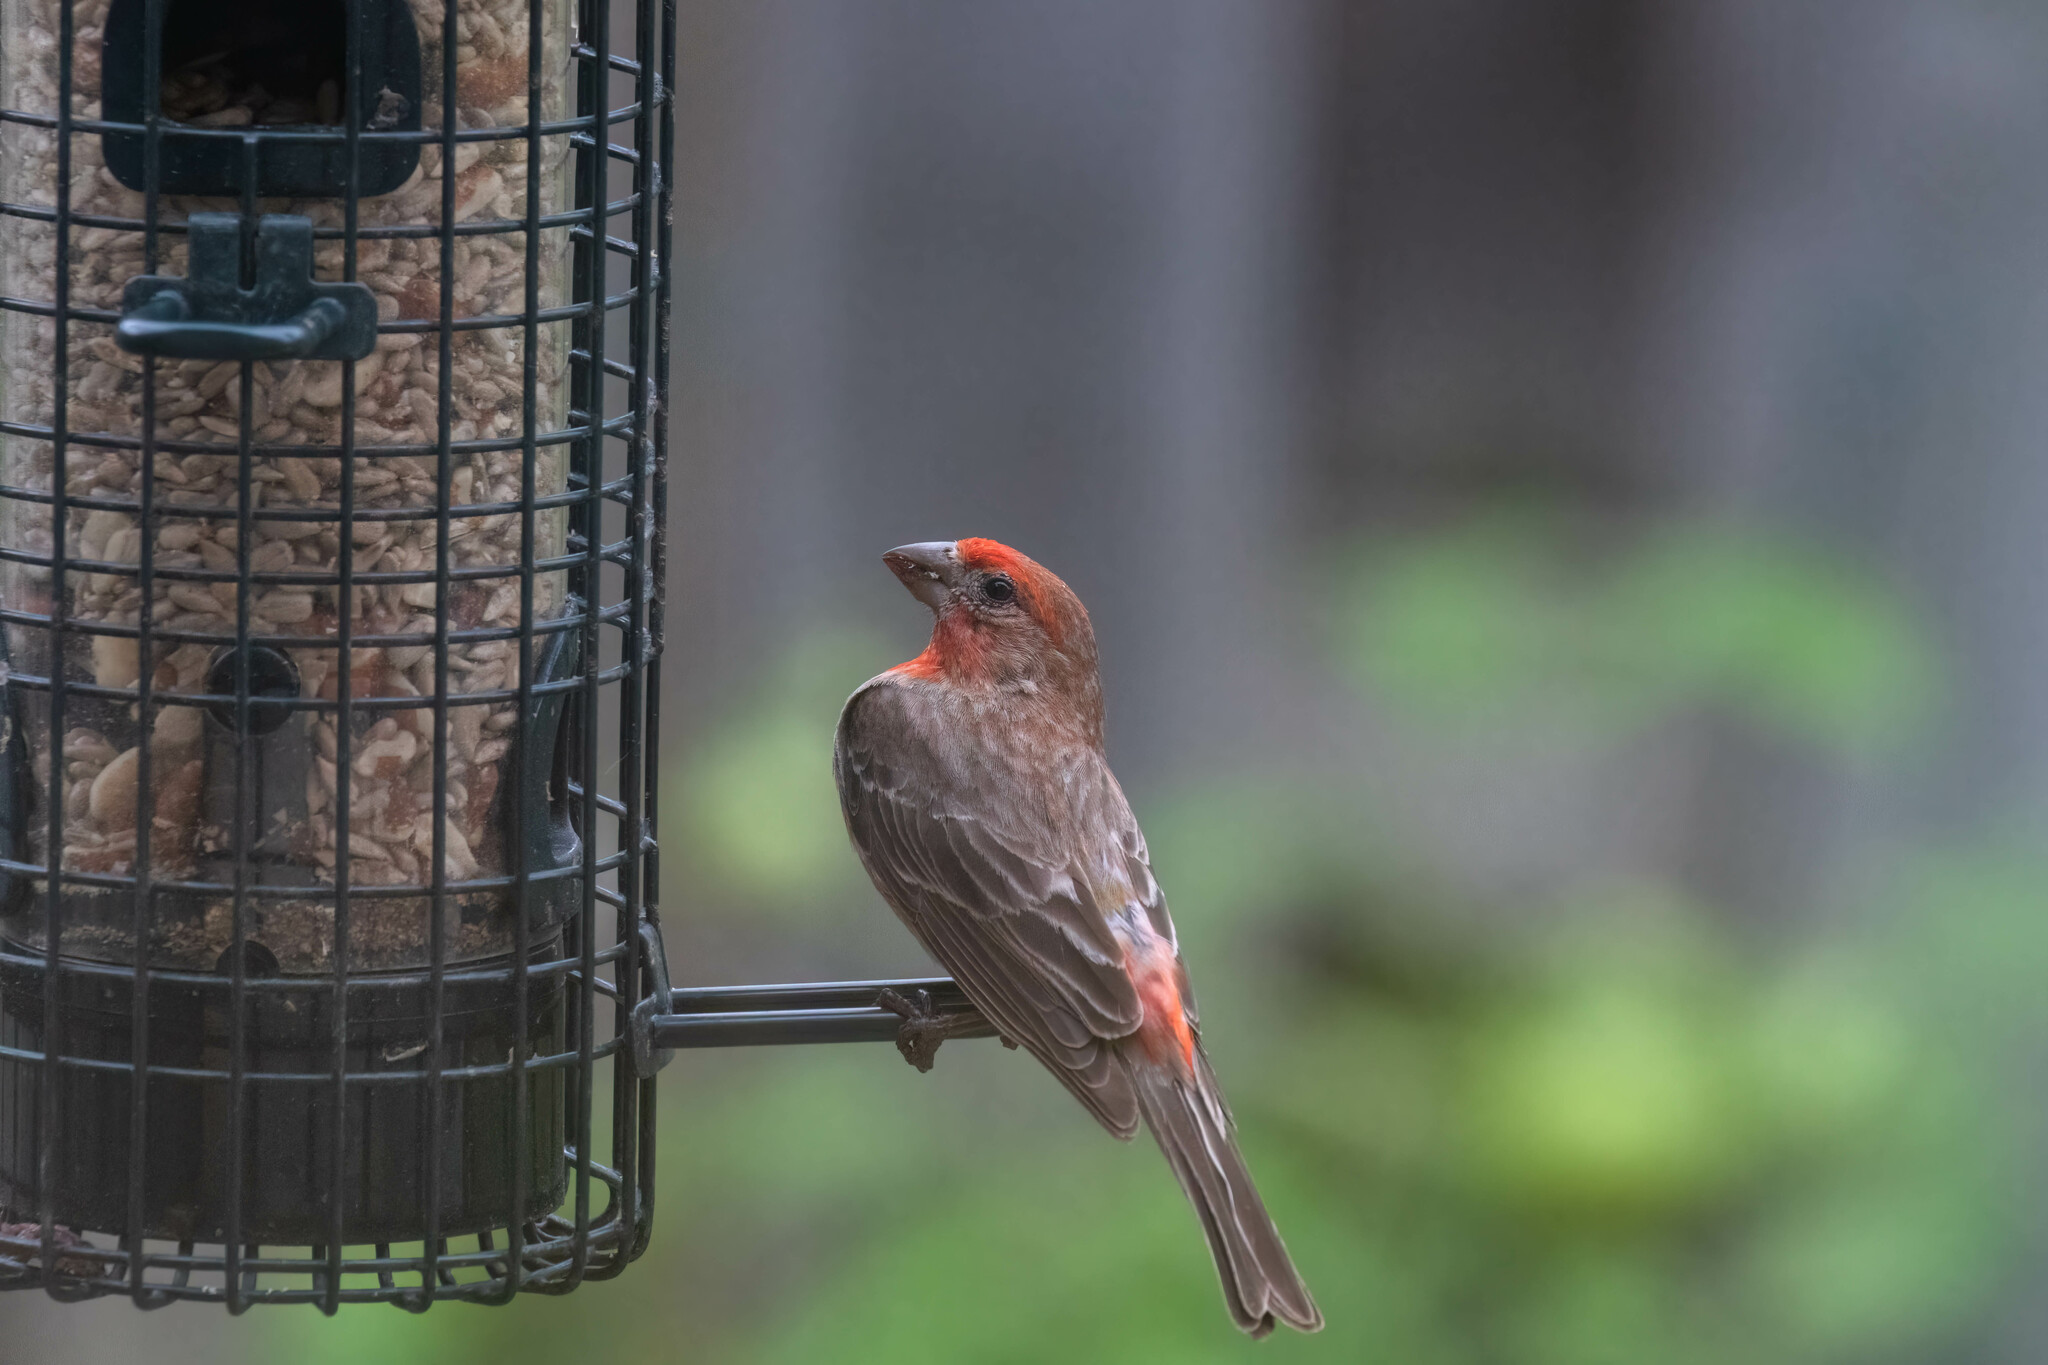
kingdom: Animalia
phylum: Chordata
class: Aves
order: Passeriformes
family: Fringillidae
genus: Haemorhous
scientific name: Haemorhous mexicanus
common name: House finch
